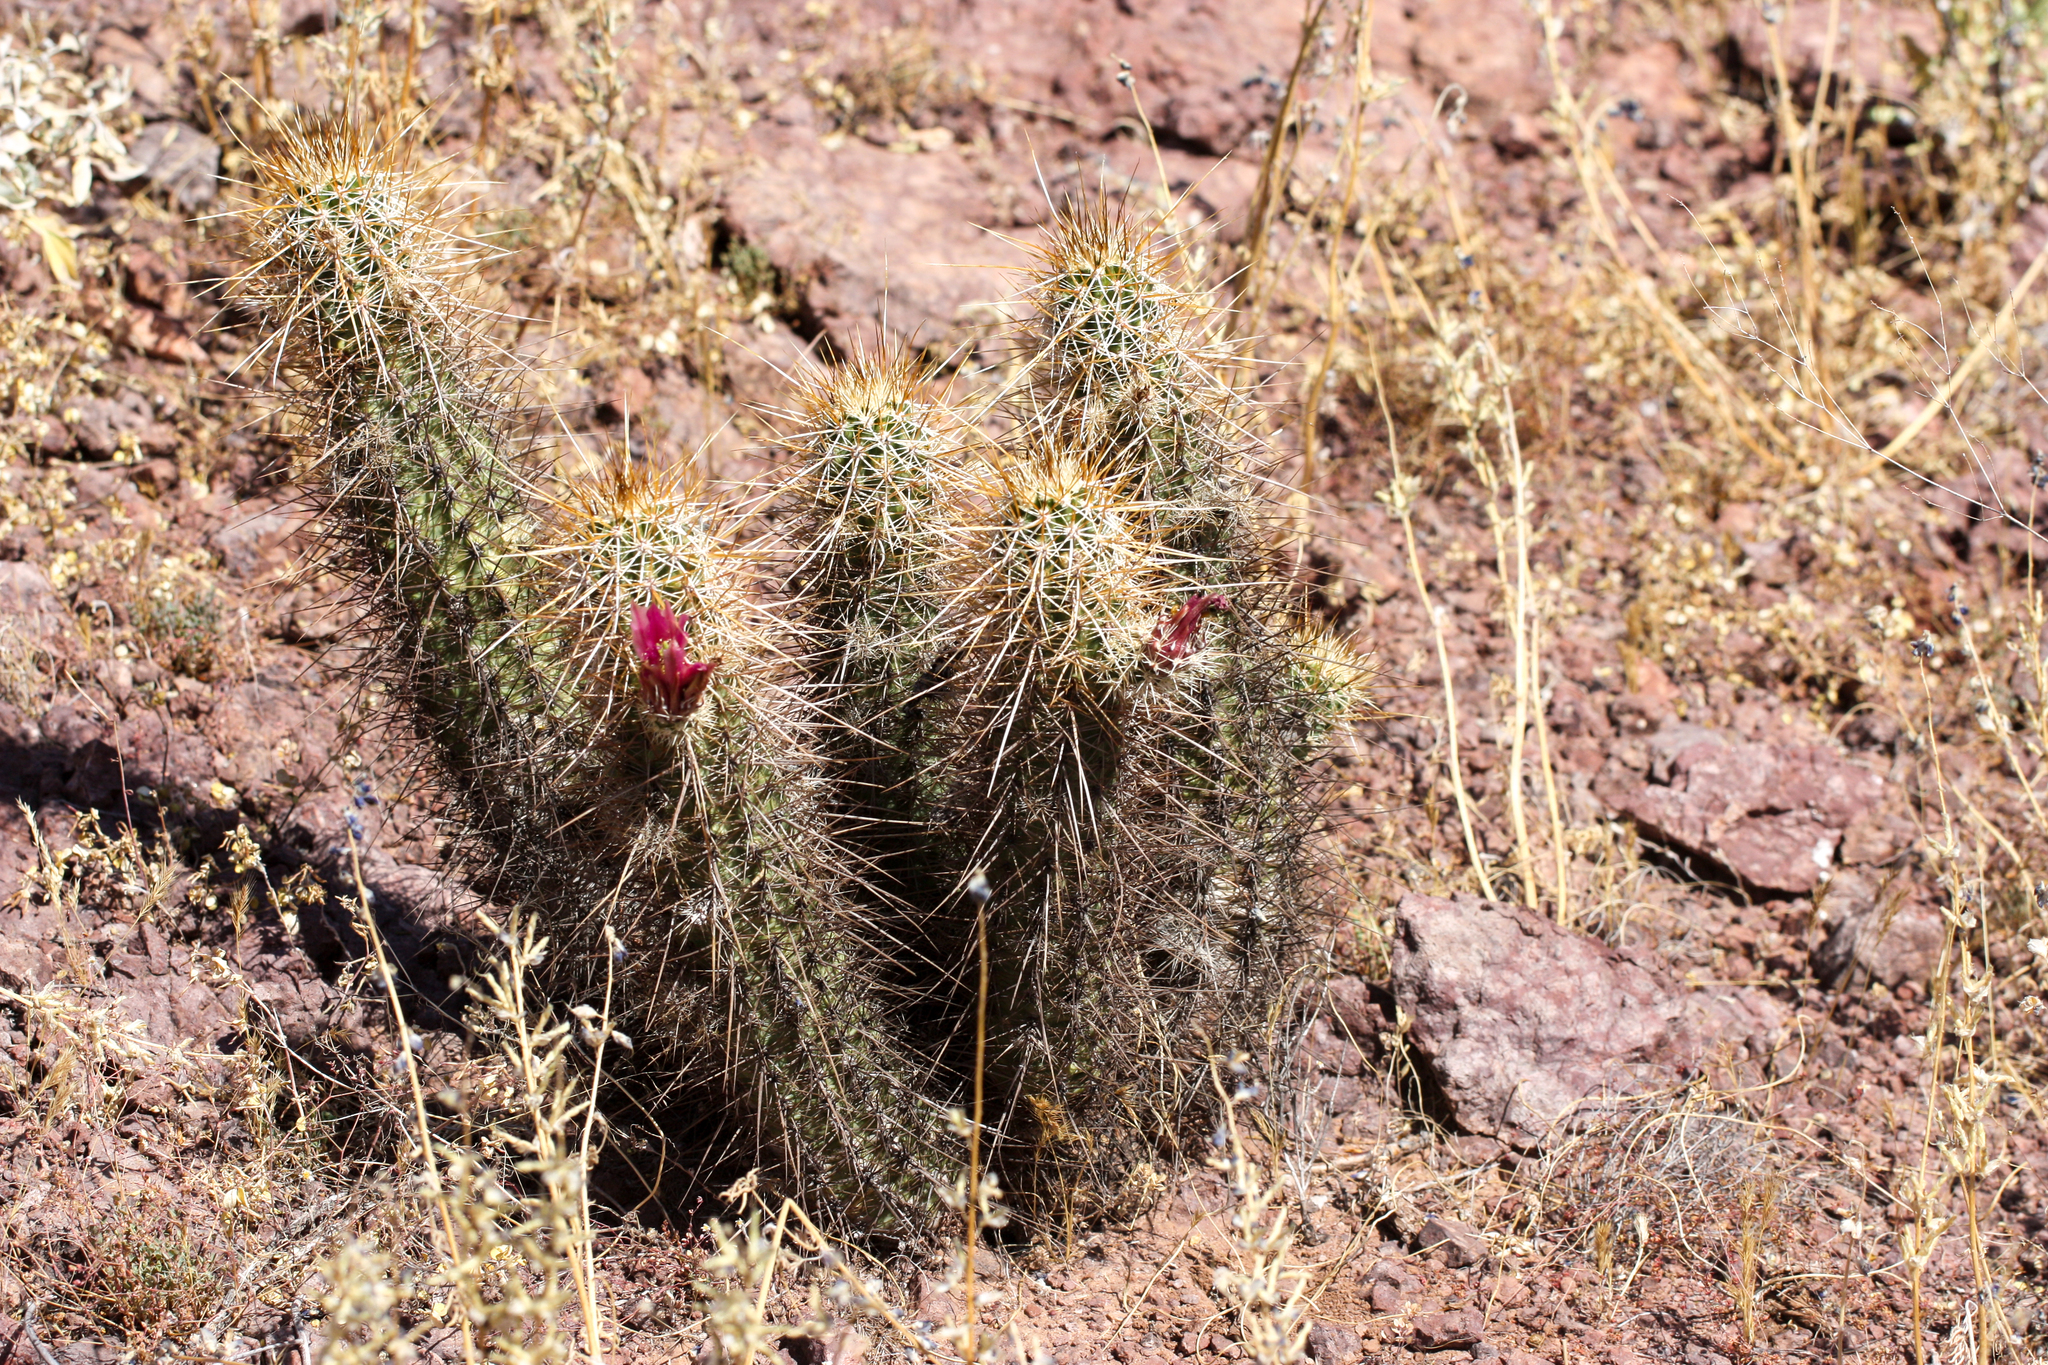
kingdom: Plantae
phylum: Tracheophyta
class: Magnoliopsida
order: Caryophyllales
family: Cactaceae
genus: Echinocereus
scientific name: Echinocereus engelmannii
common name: Engelmann's hedgehog cactus
